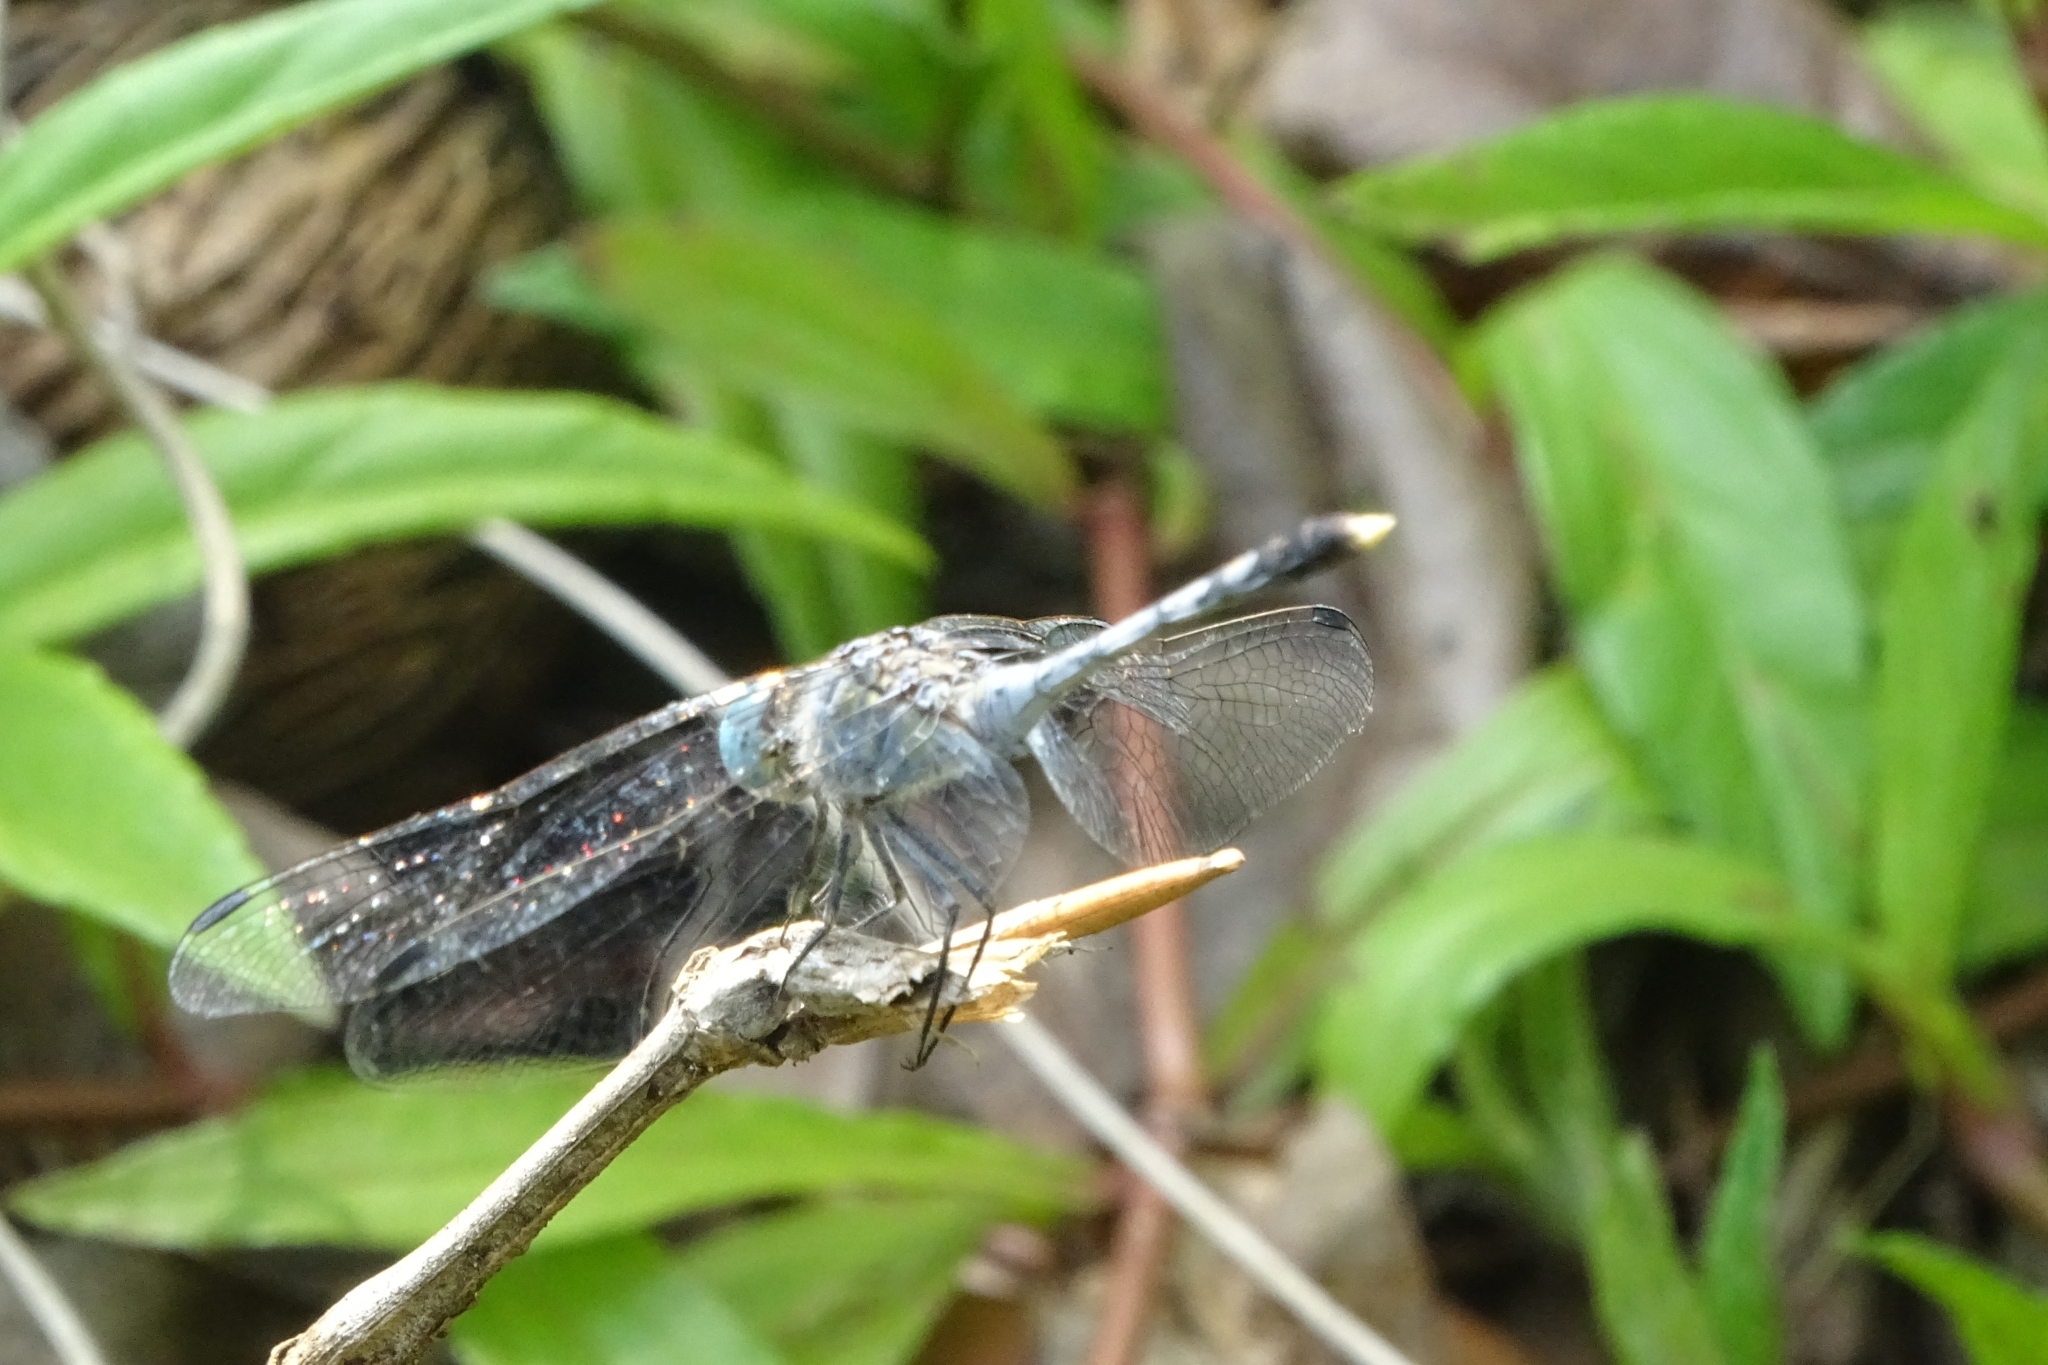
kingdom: Animalia
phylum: Arthropoda
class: Insecta
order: Odonata
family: Libellulidae
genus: Diplacodes
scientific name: Diplacodes trivialis
